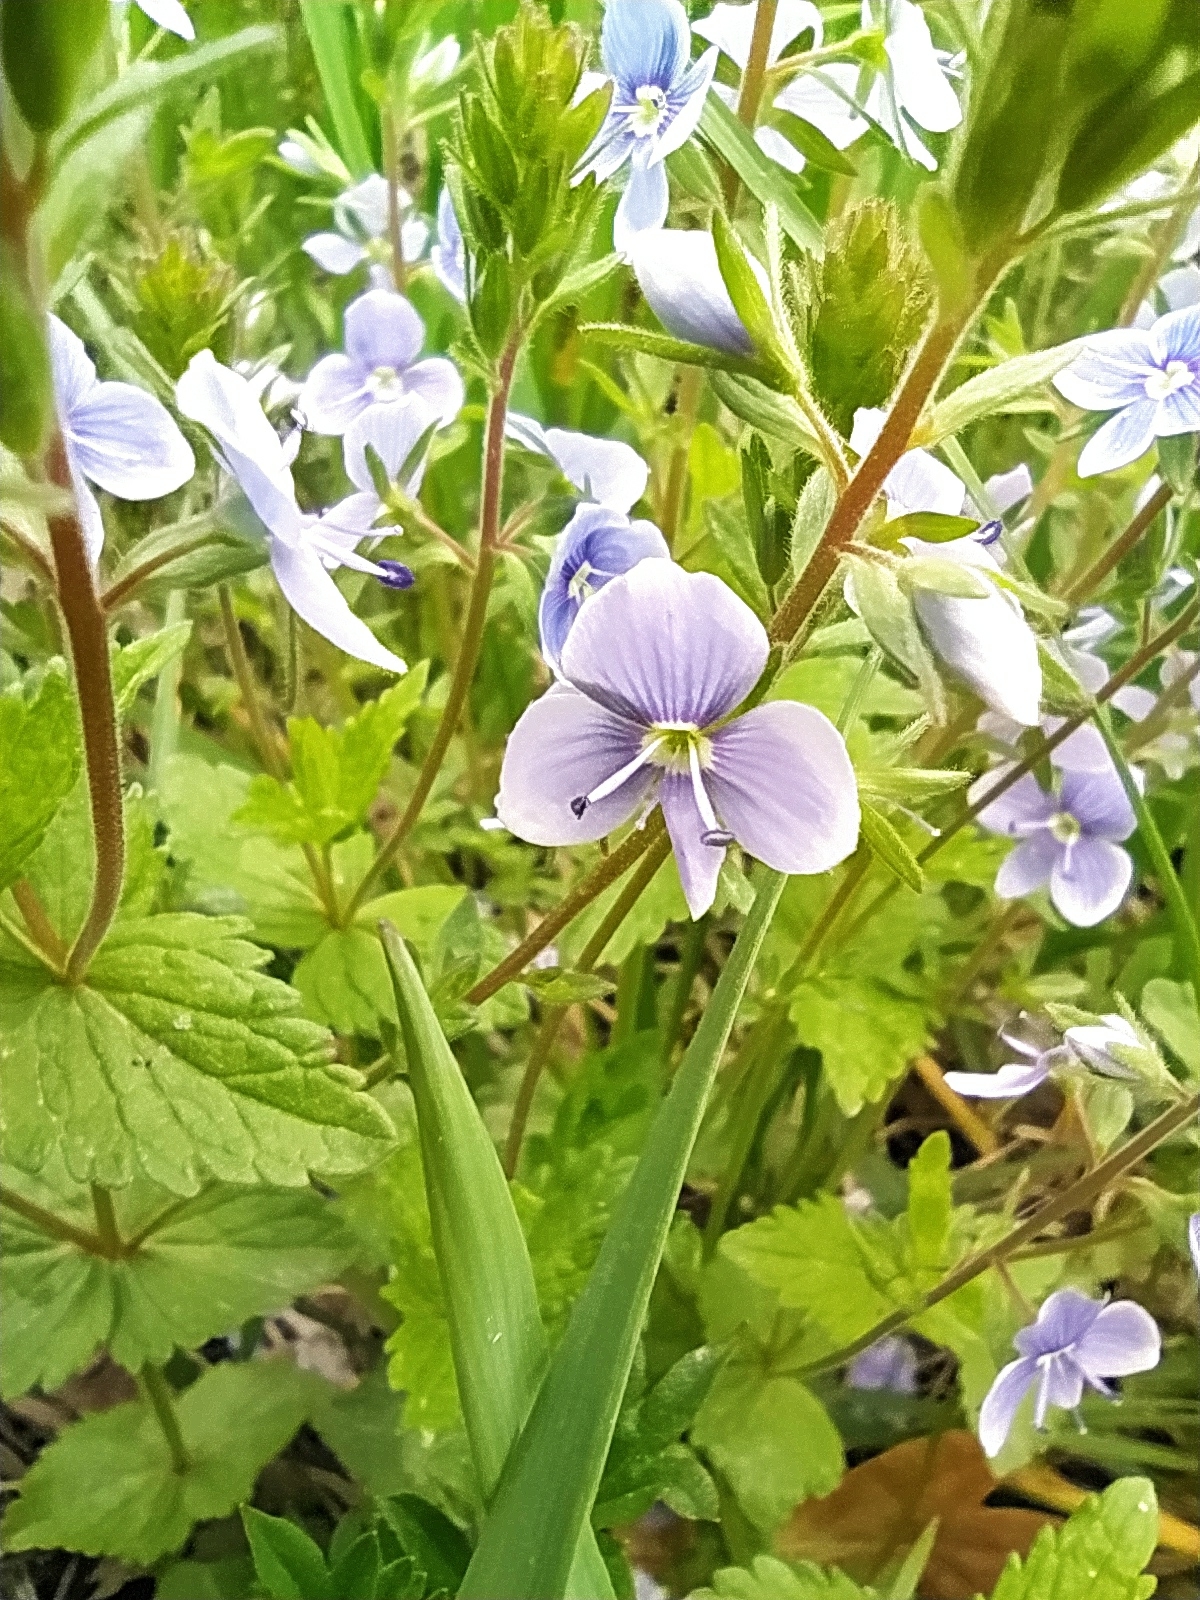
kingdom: Plantae
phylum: Tracheophyta
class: Magnoliopsida
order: Lamiales
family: Plantaginaceae
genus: Veronica
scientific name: Veronica chamaedrys
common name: Germander speedwell
